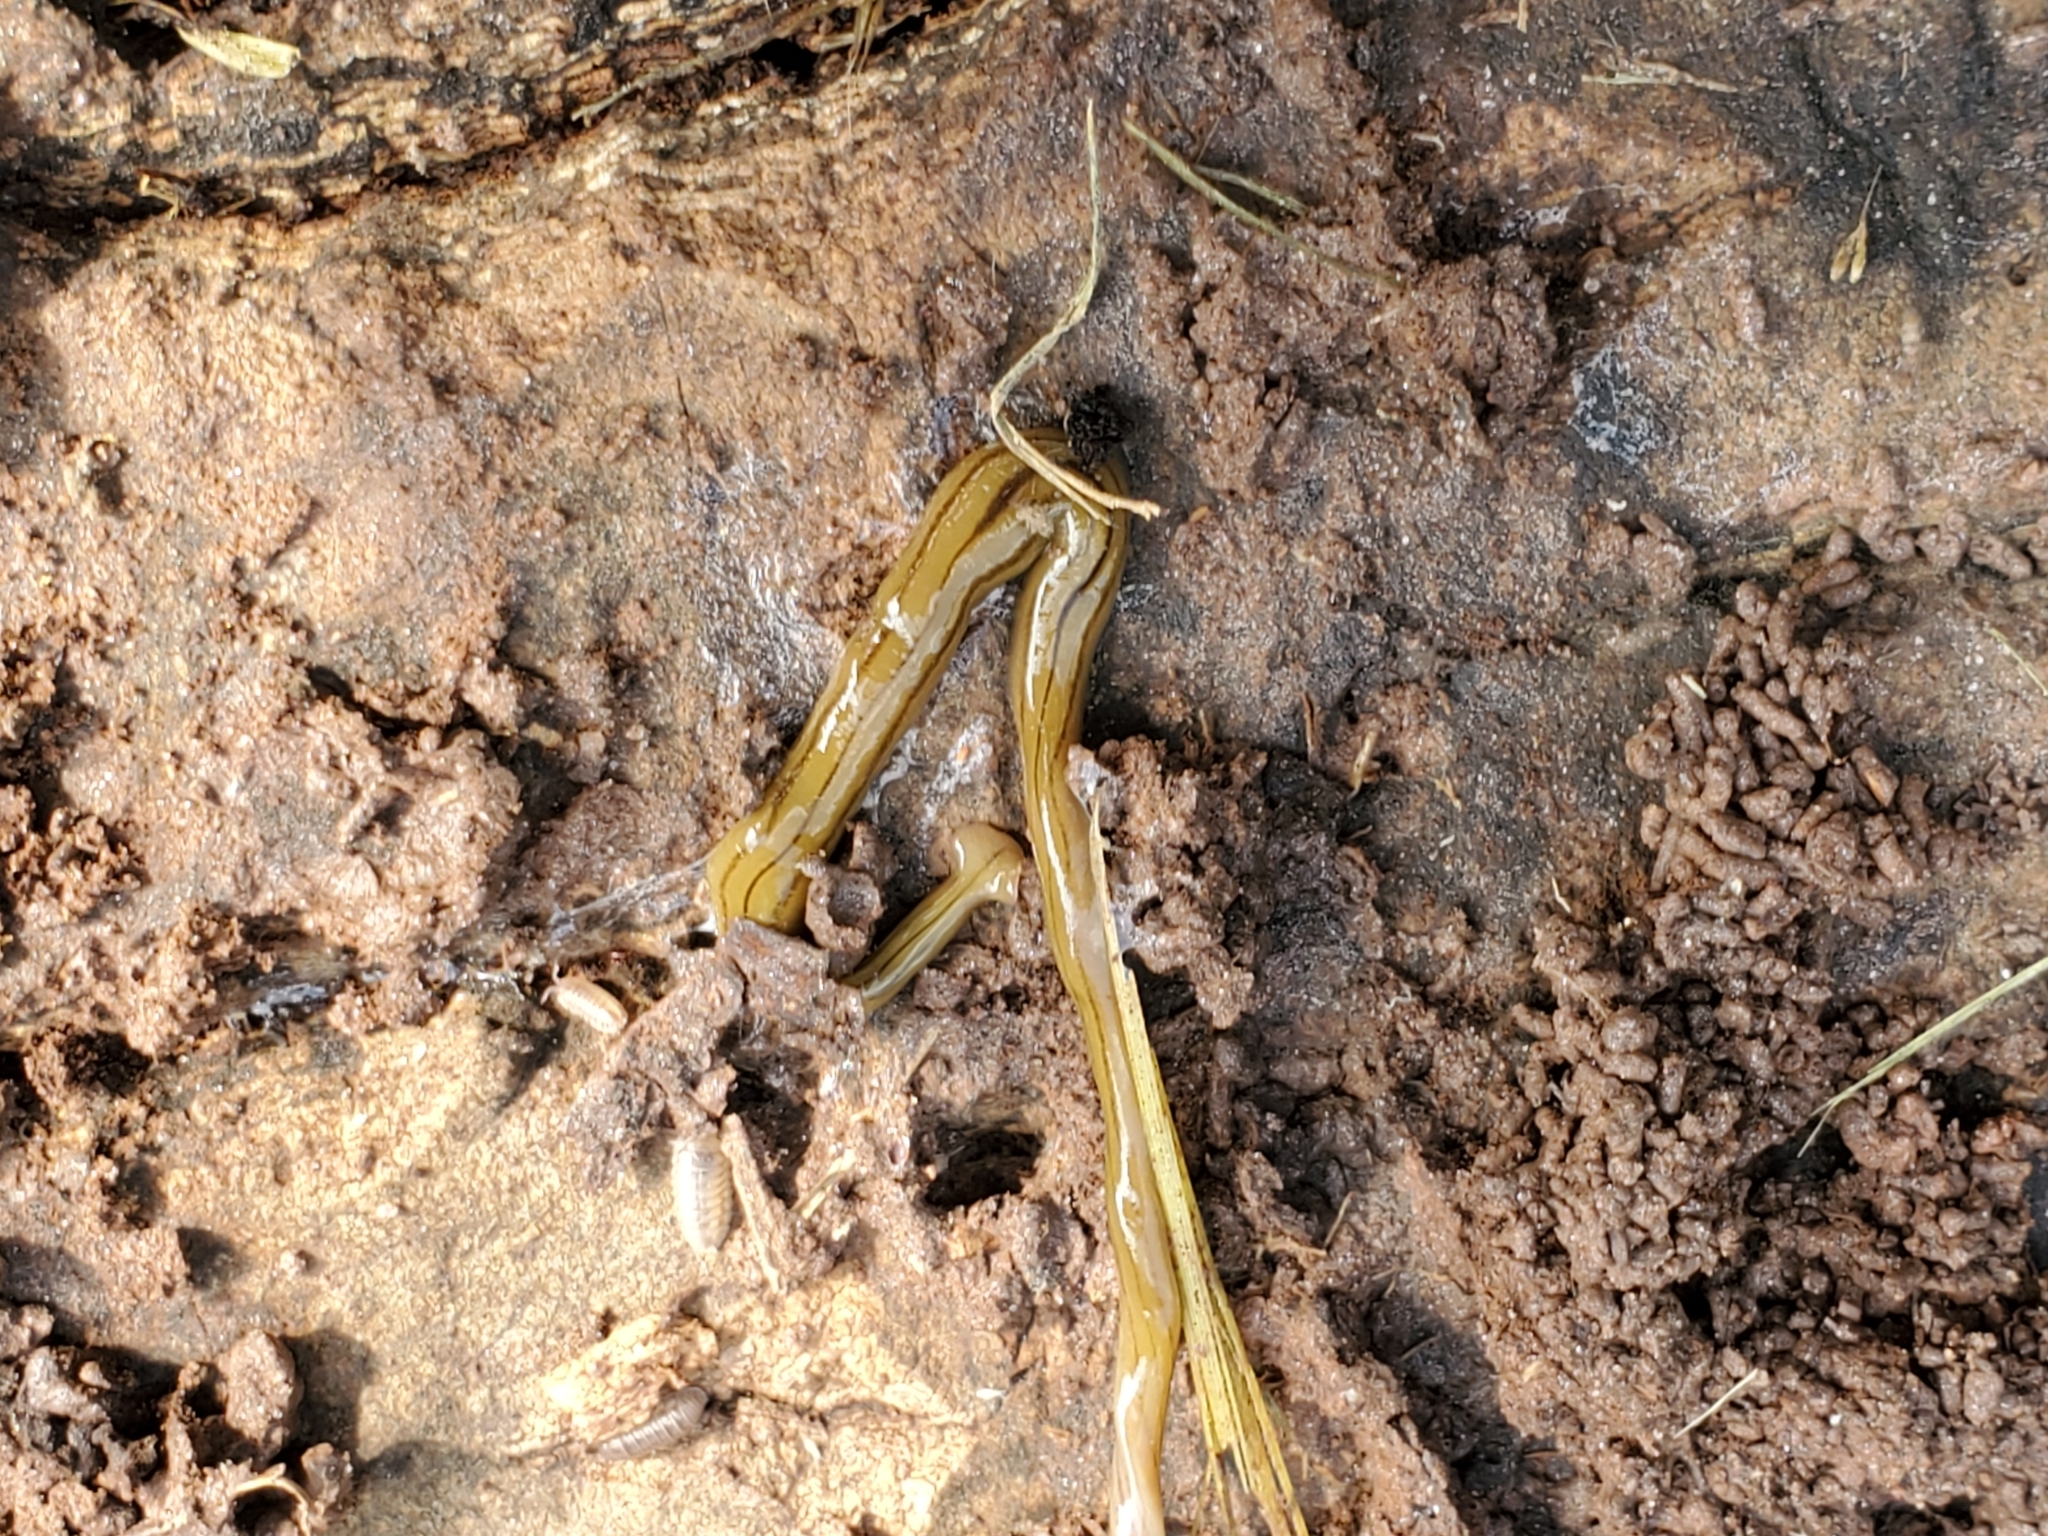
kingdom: Animalia
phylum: Platyhelminthes
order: Tricladida
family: Geoplanidae
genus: Diversibipalium
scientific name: Diversibipalium multilineatum
